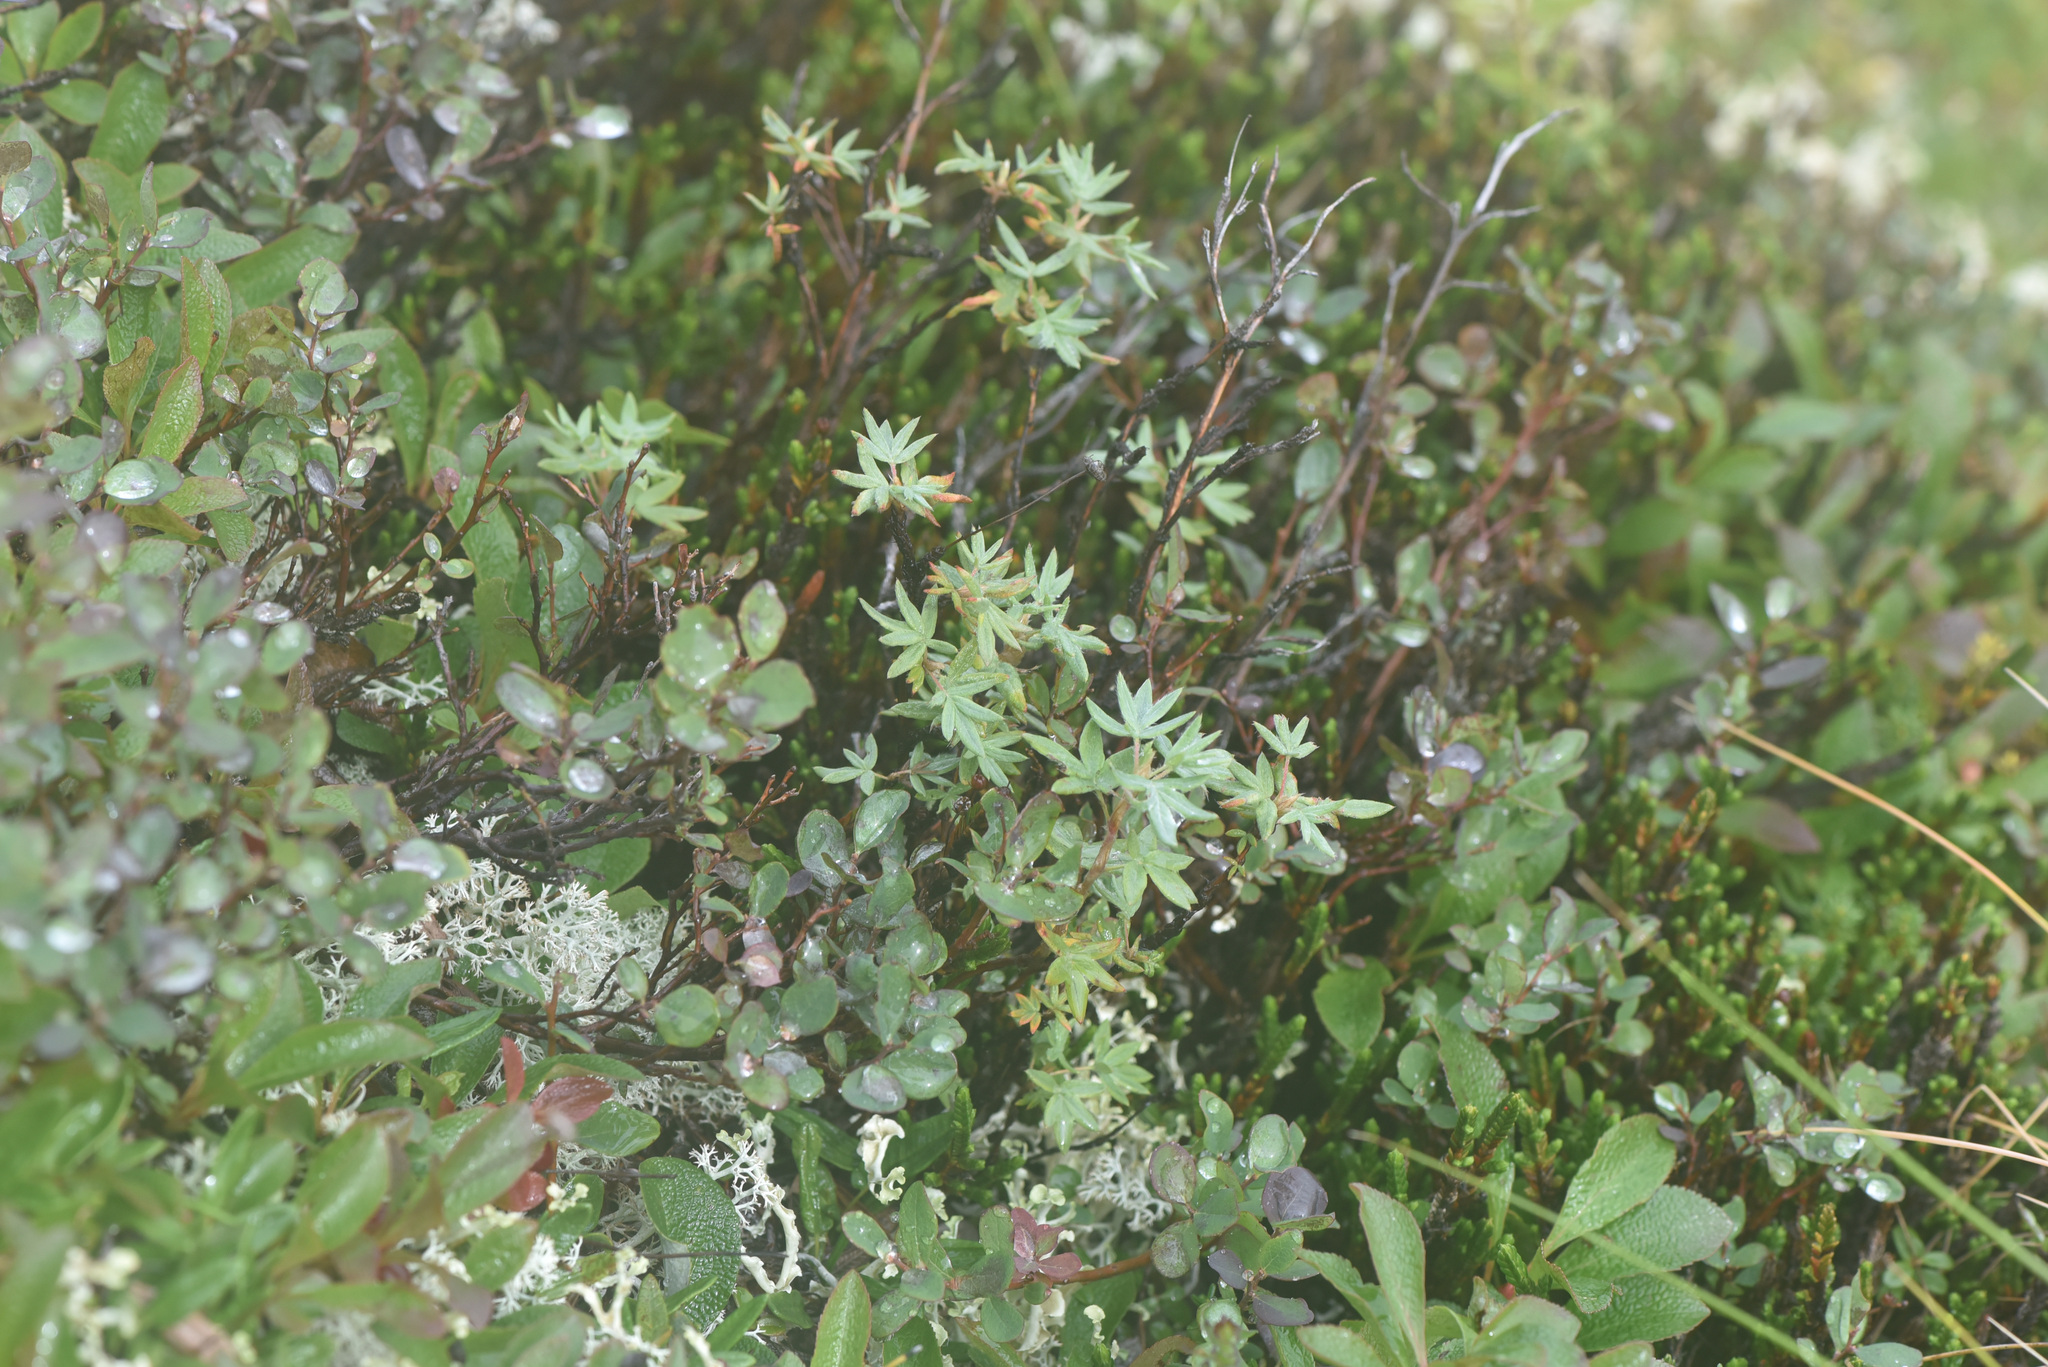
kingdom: Plantae
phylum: Tracheophyta
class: Magnoliopsida
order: Rosales
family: Rosaceae
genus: Dasiphora
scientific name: Dasiphora fruticosa
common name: Shrubby cinquefoil
